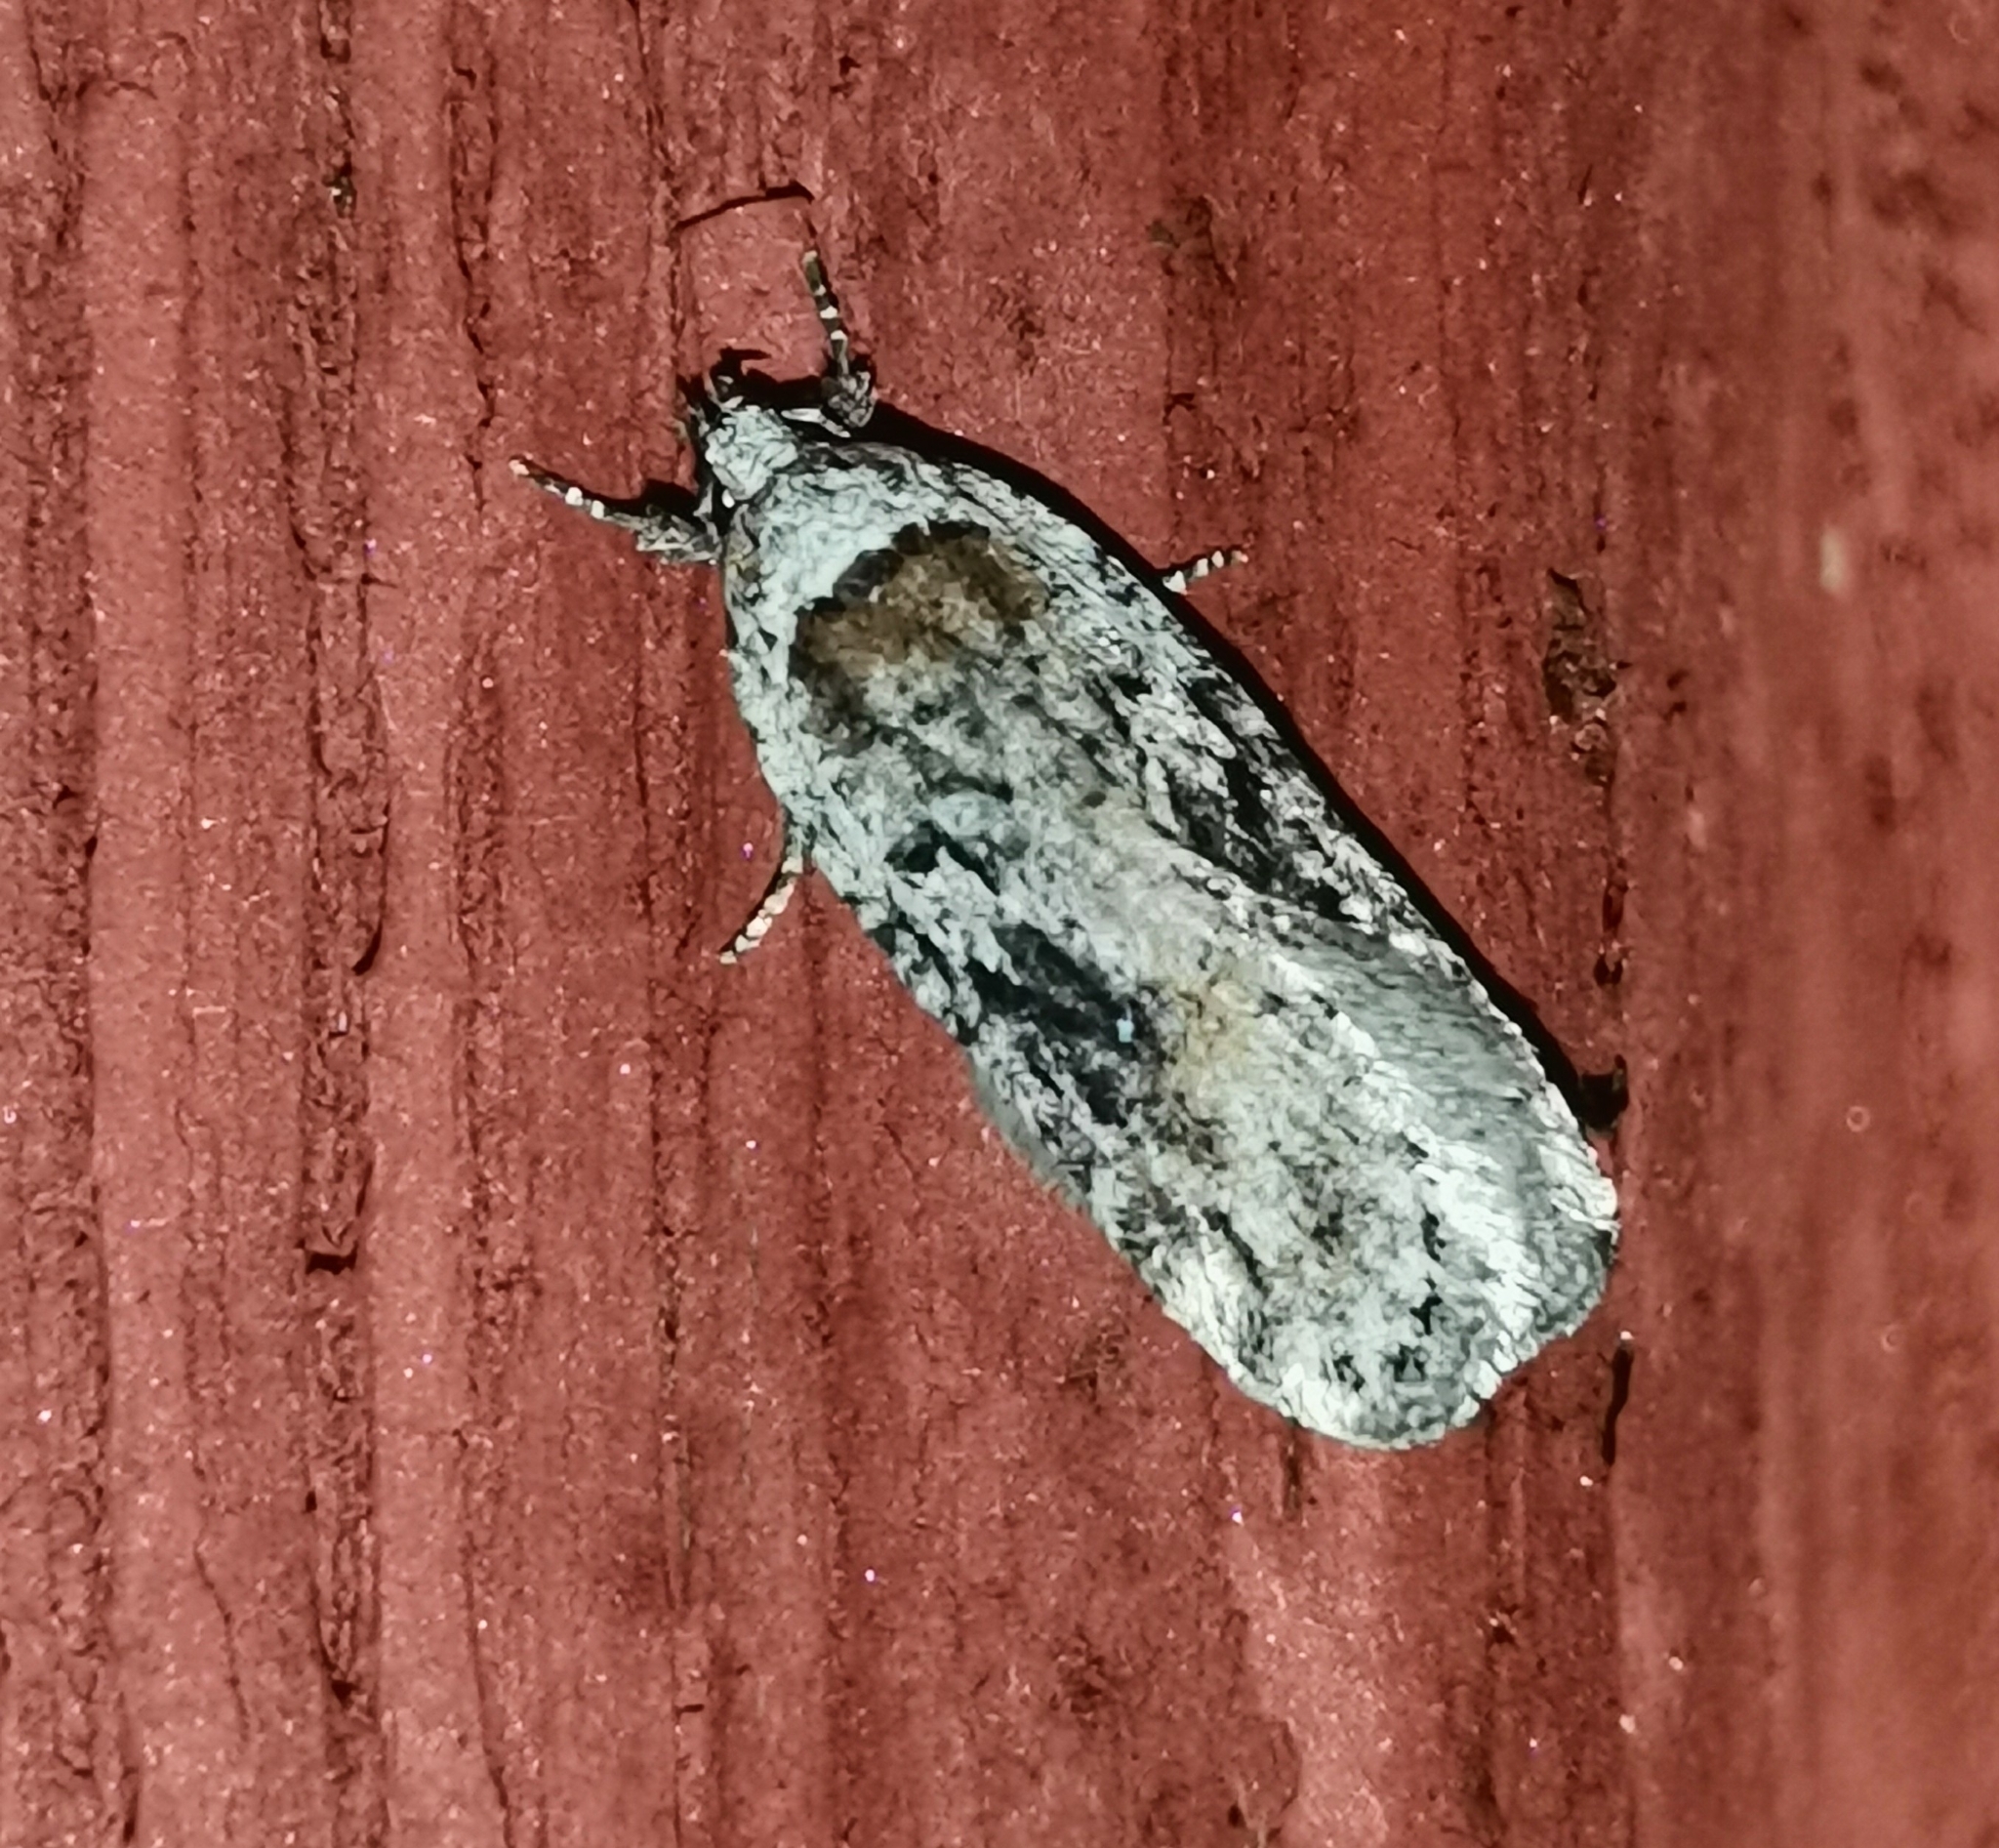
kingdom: Animalia
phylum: Arthropoda
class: Insecta
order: Lepidoptera
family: Depressariidae
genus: Exaeretia
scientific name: Exaeretia ciniflonella
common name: Scotch flat-body
